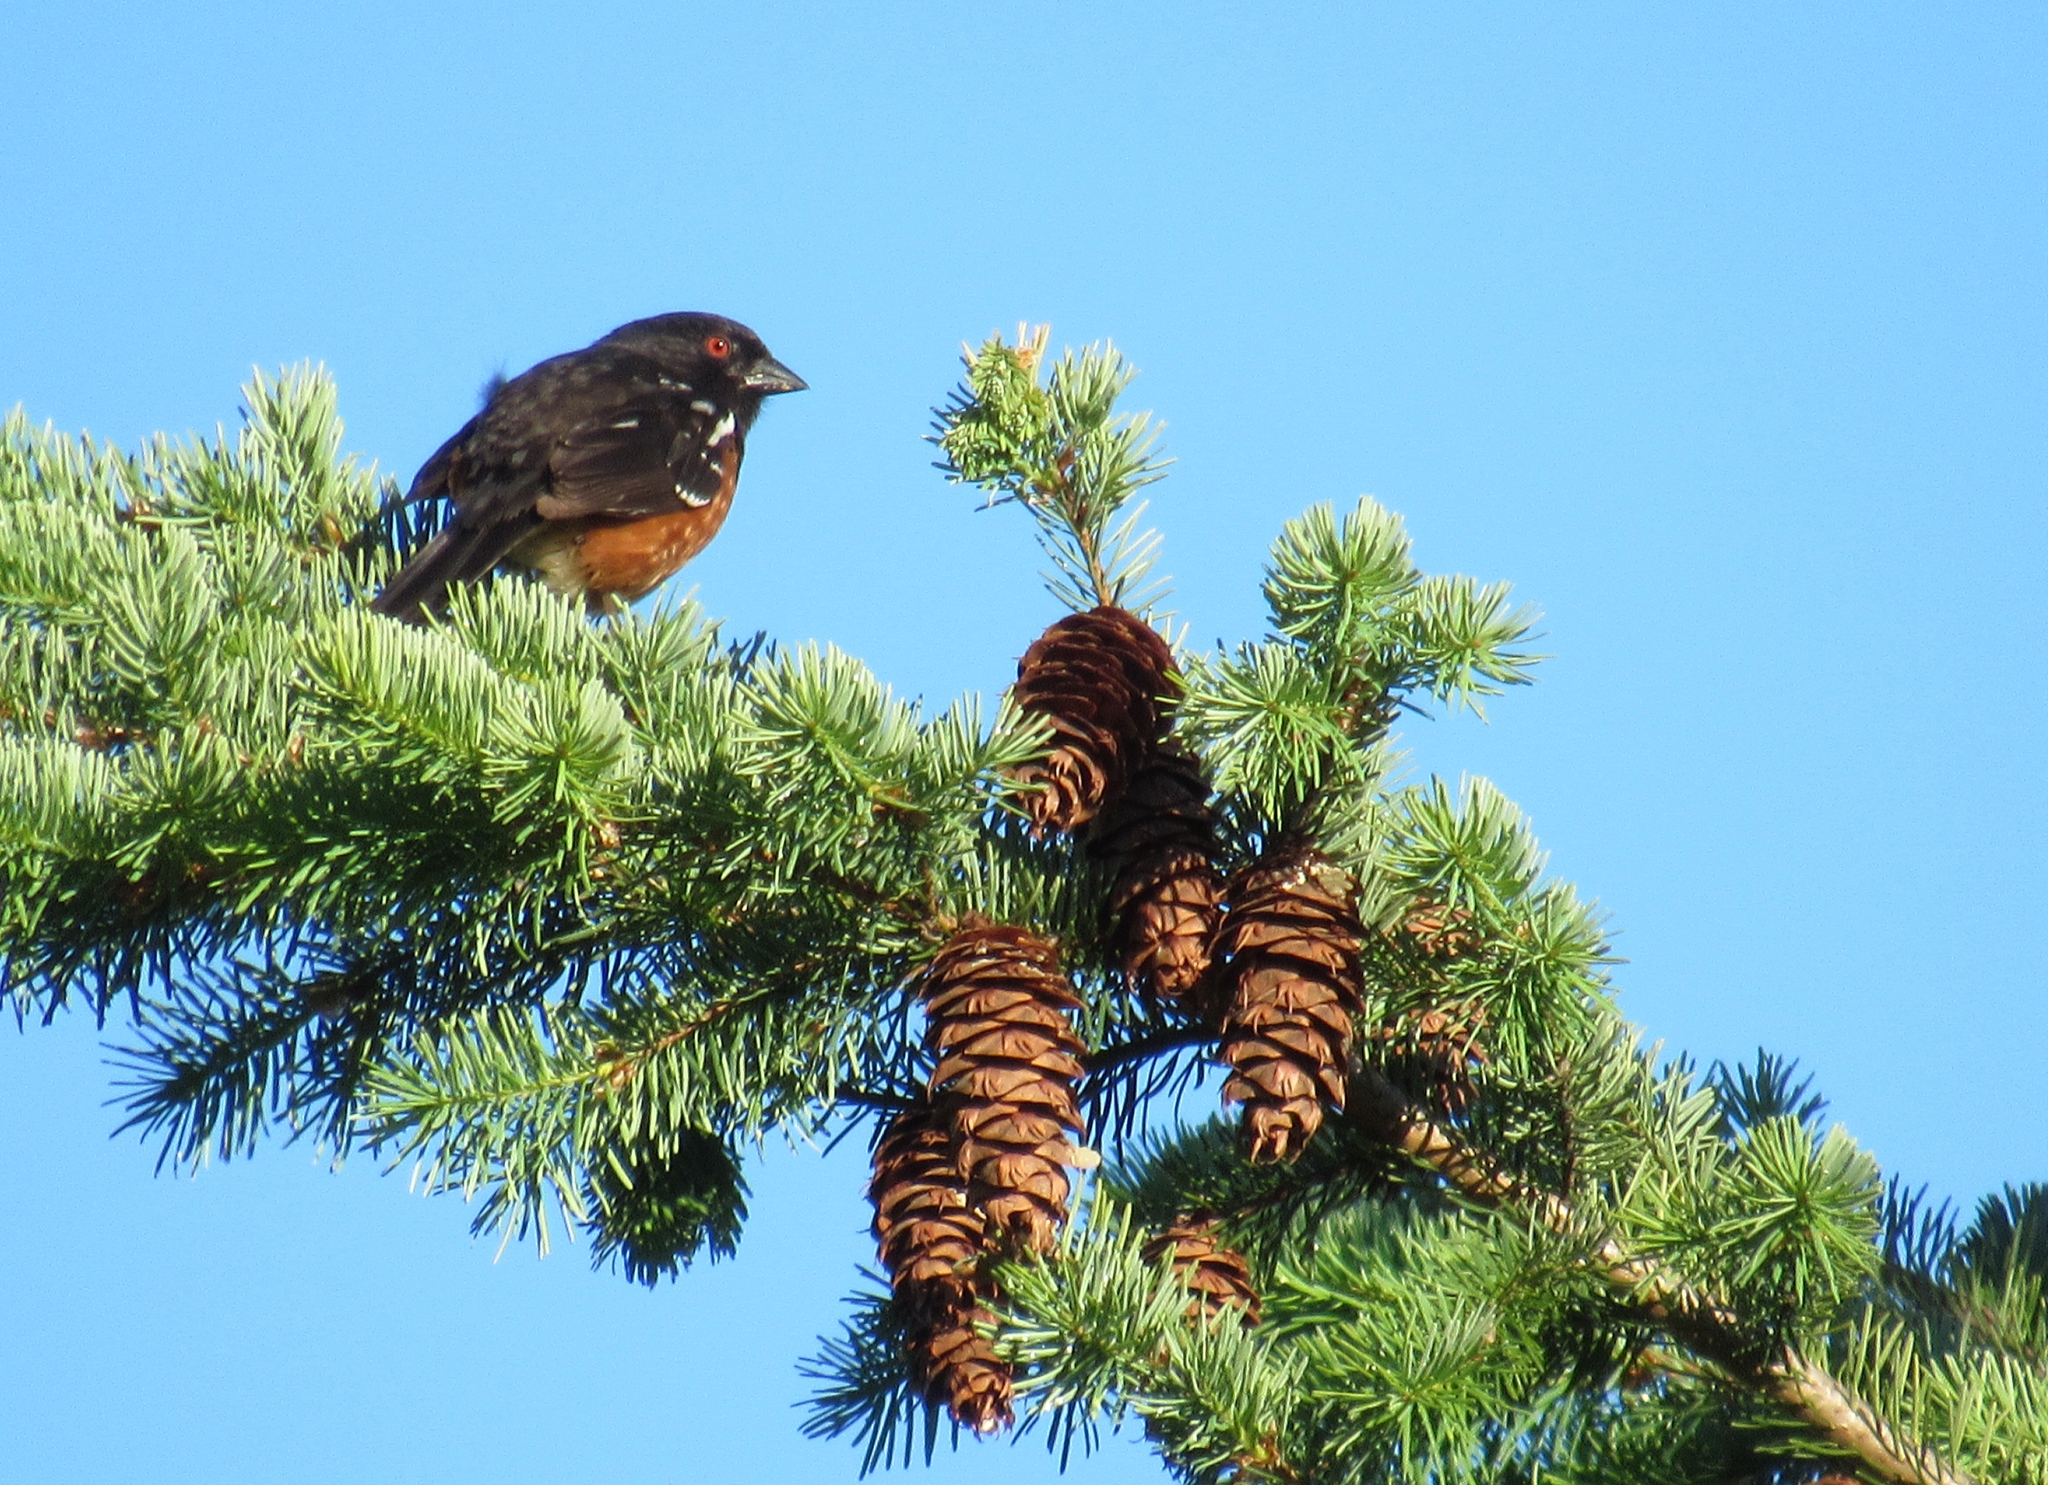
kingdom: Animalia
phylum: Chordata
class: Aves
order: Passeriformes
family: Passerellidae
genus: Pipilo
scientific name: Pipilo maculatus
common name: Spotted towhee
